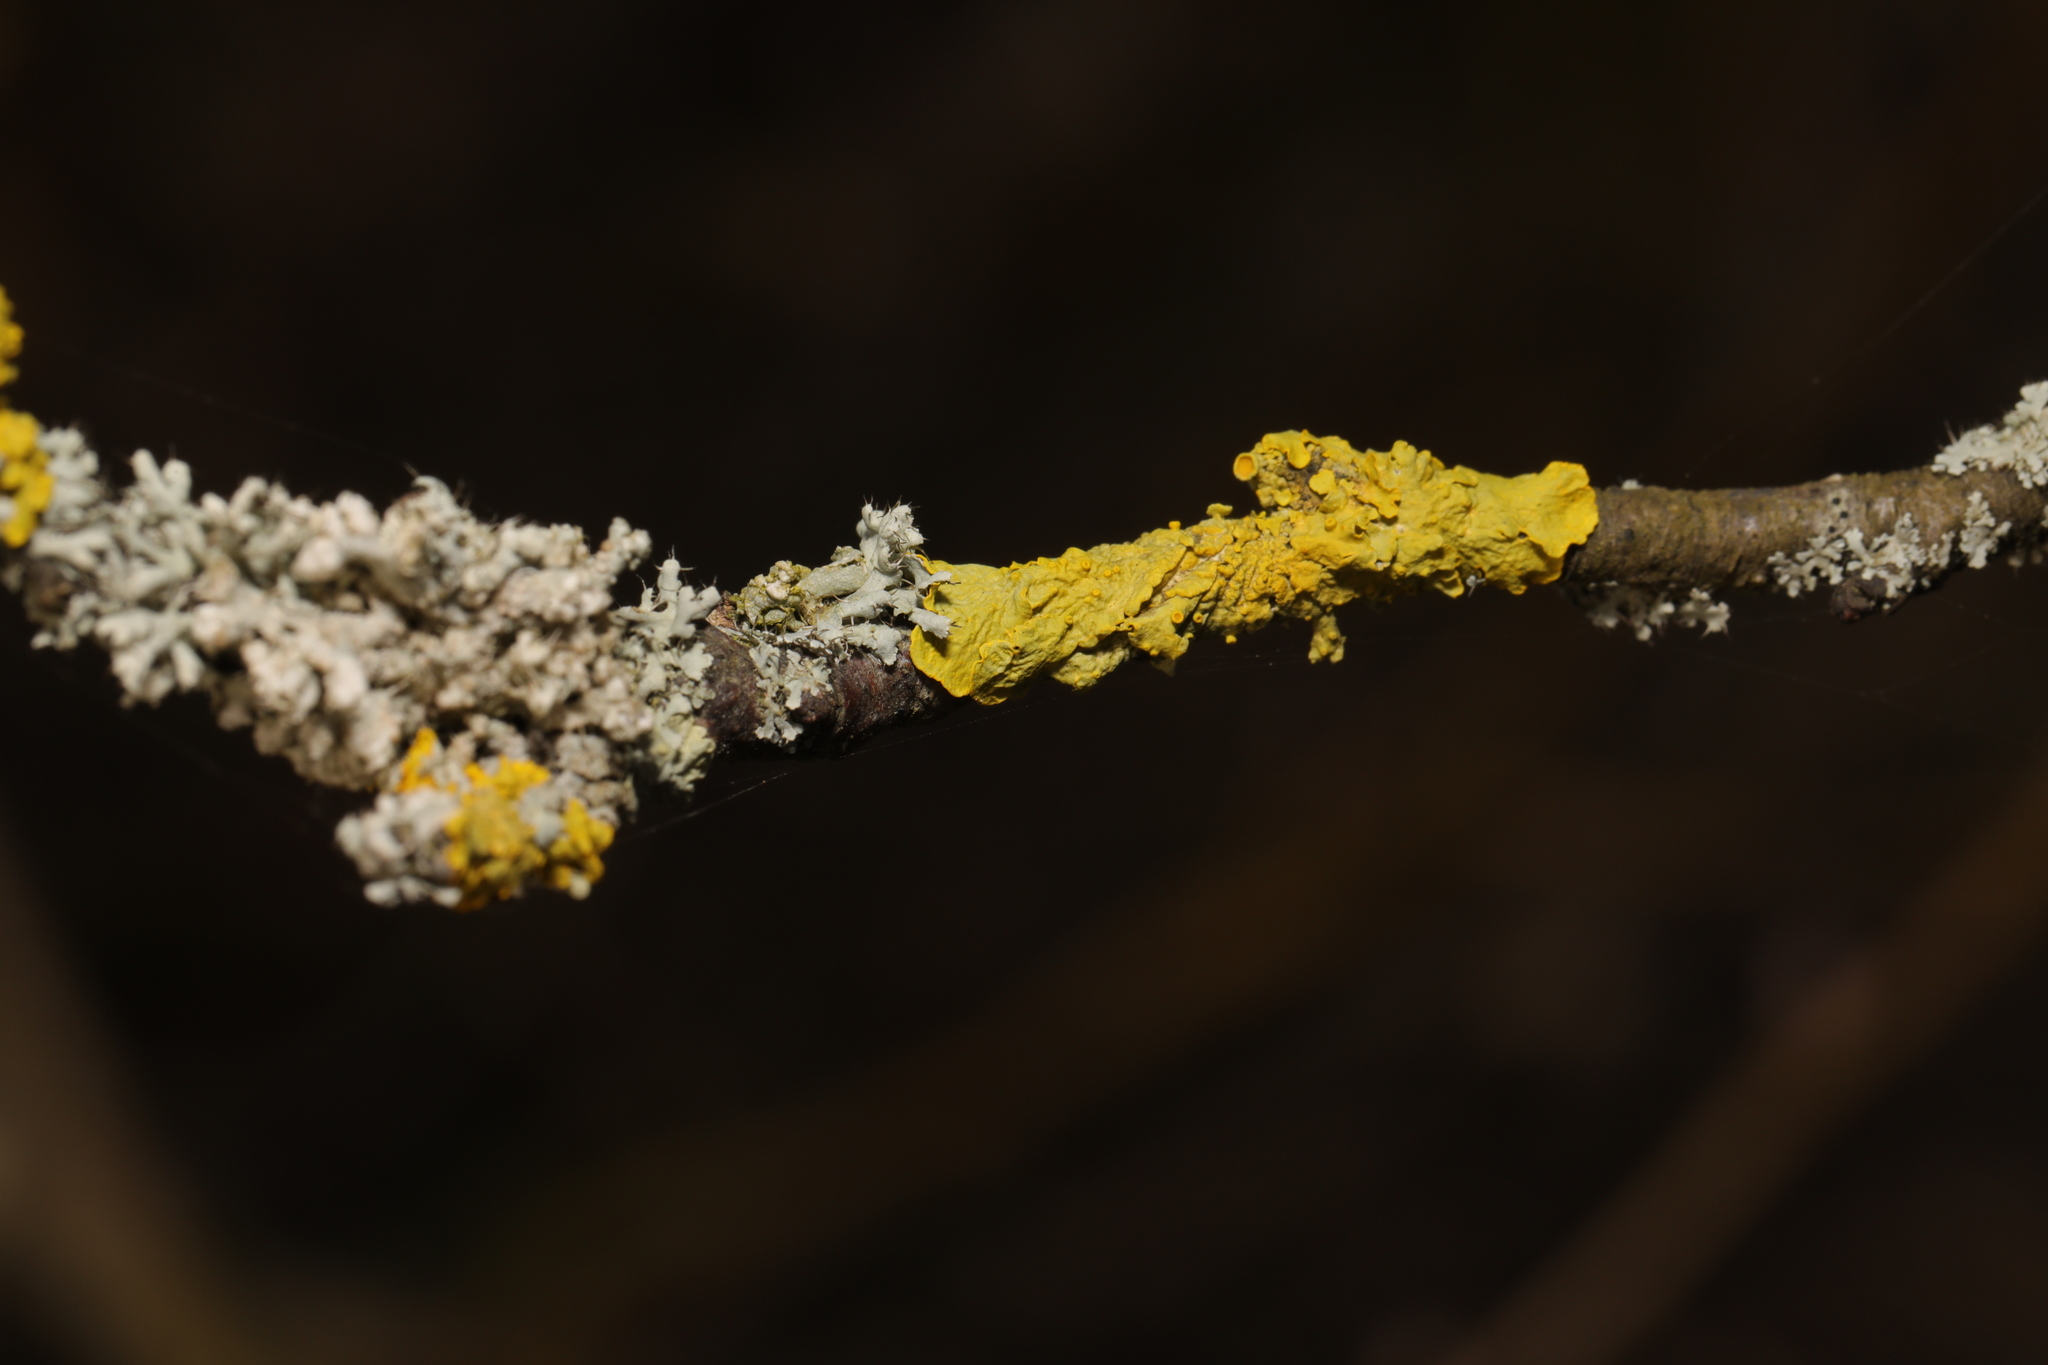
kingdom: Fungi
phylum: Ascomycota
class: Lecanoromycetes
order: Teloschistales
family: Teloschistaceae
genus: Xanthoria
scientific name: Xanthoria parietina
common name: Common orange lichen
